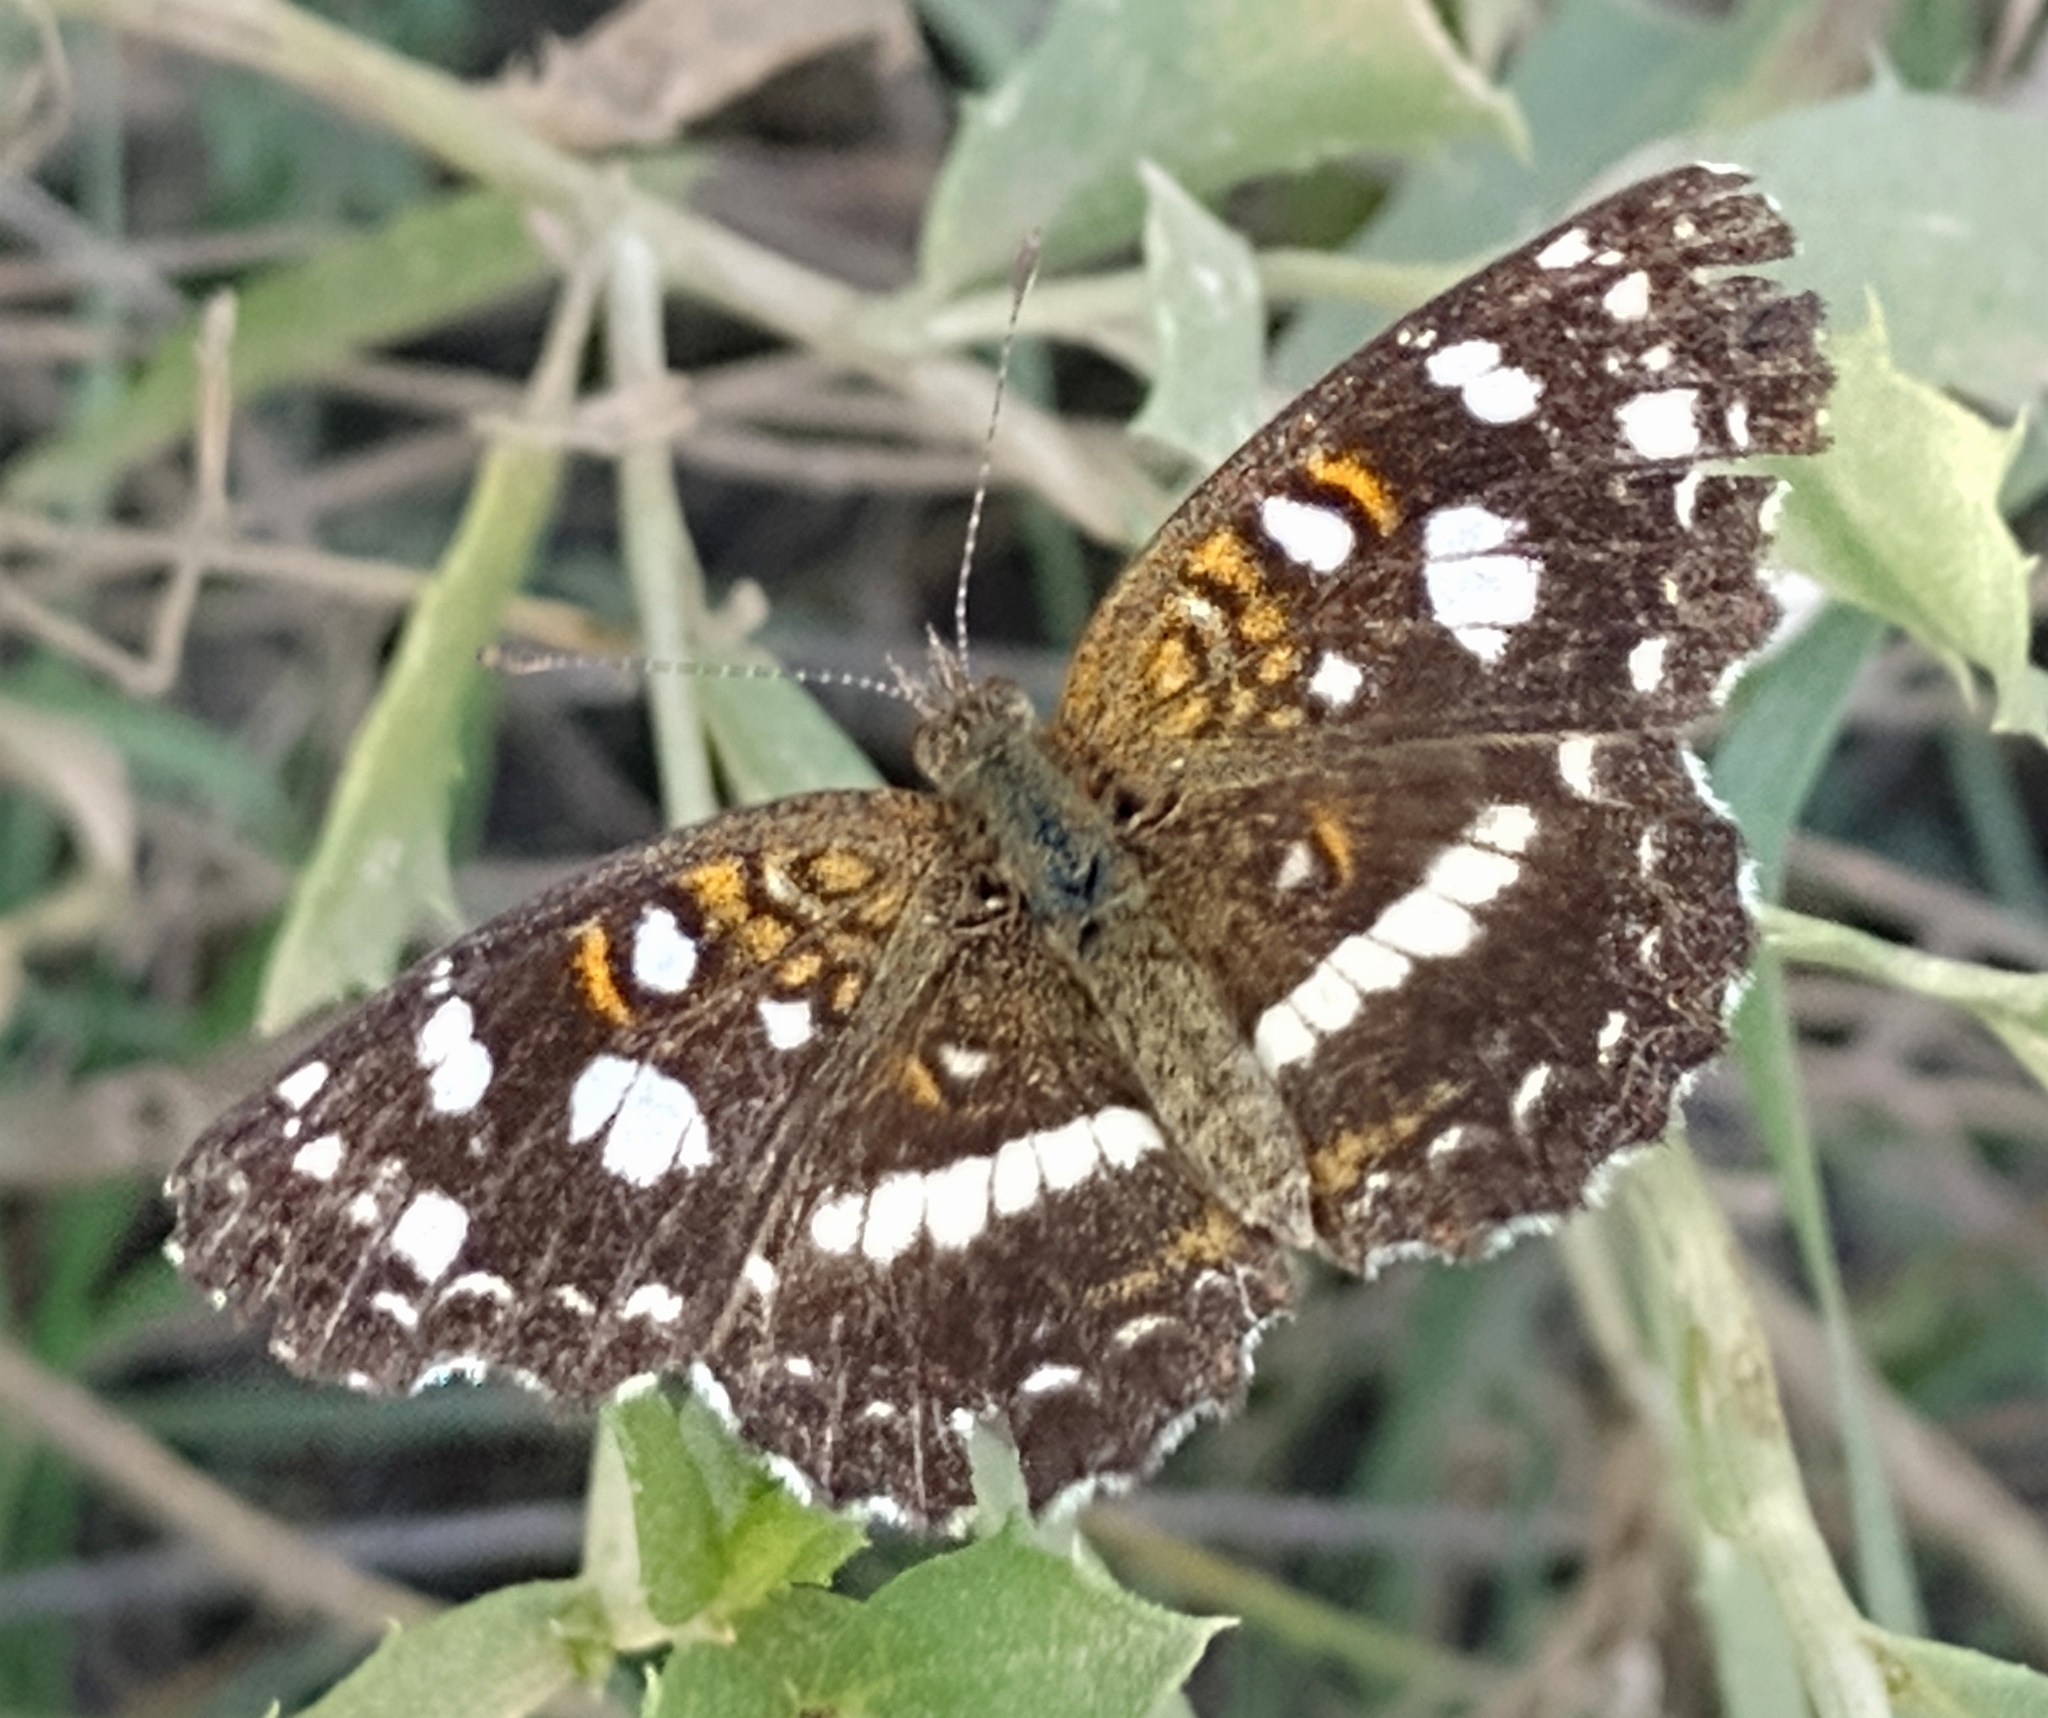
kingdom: Animalia
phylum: Arthropoda
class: Insecta
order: Lepidoptera
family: Nymphalidae
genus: Ortilia
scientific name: Ortilia ithra
